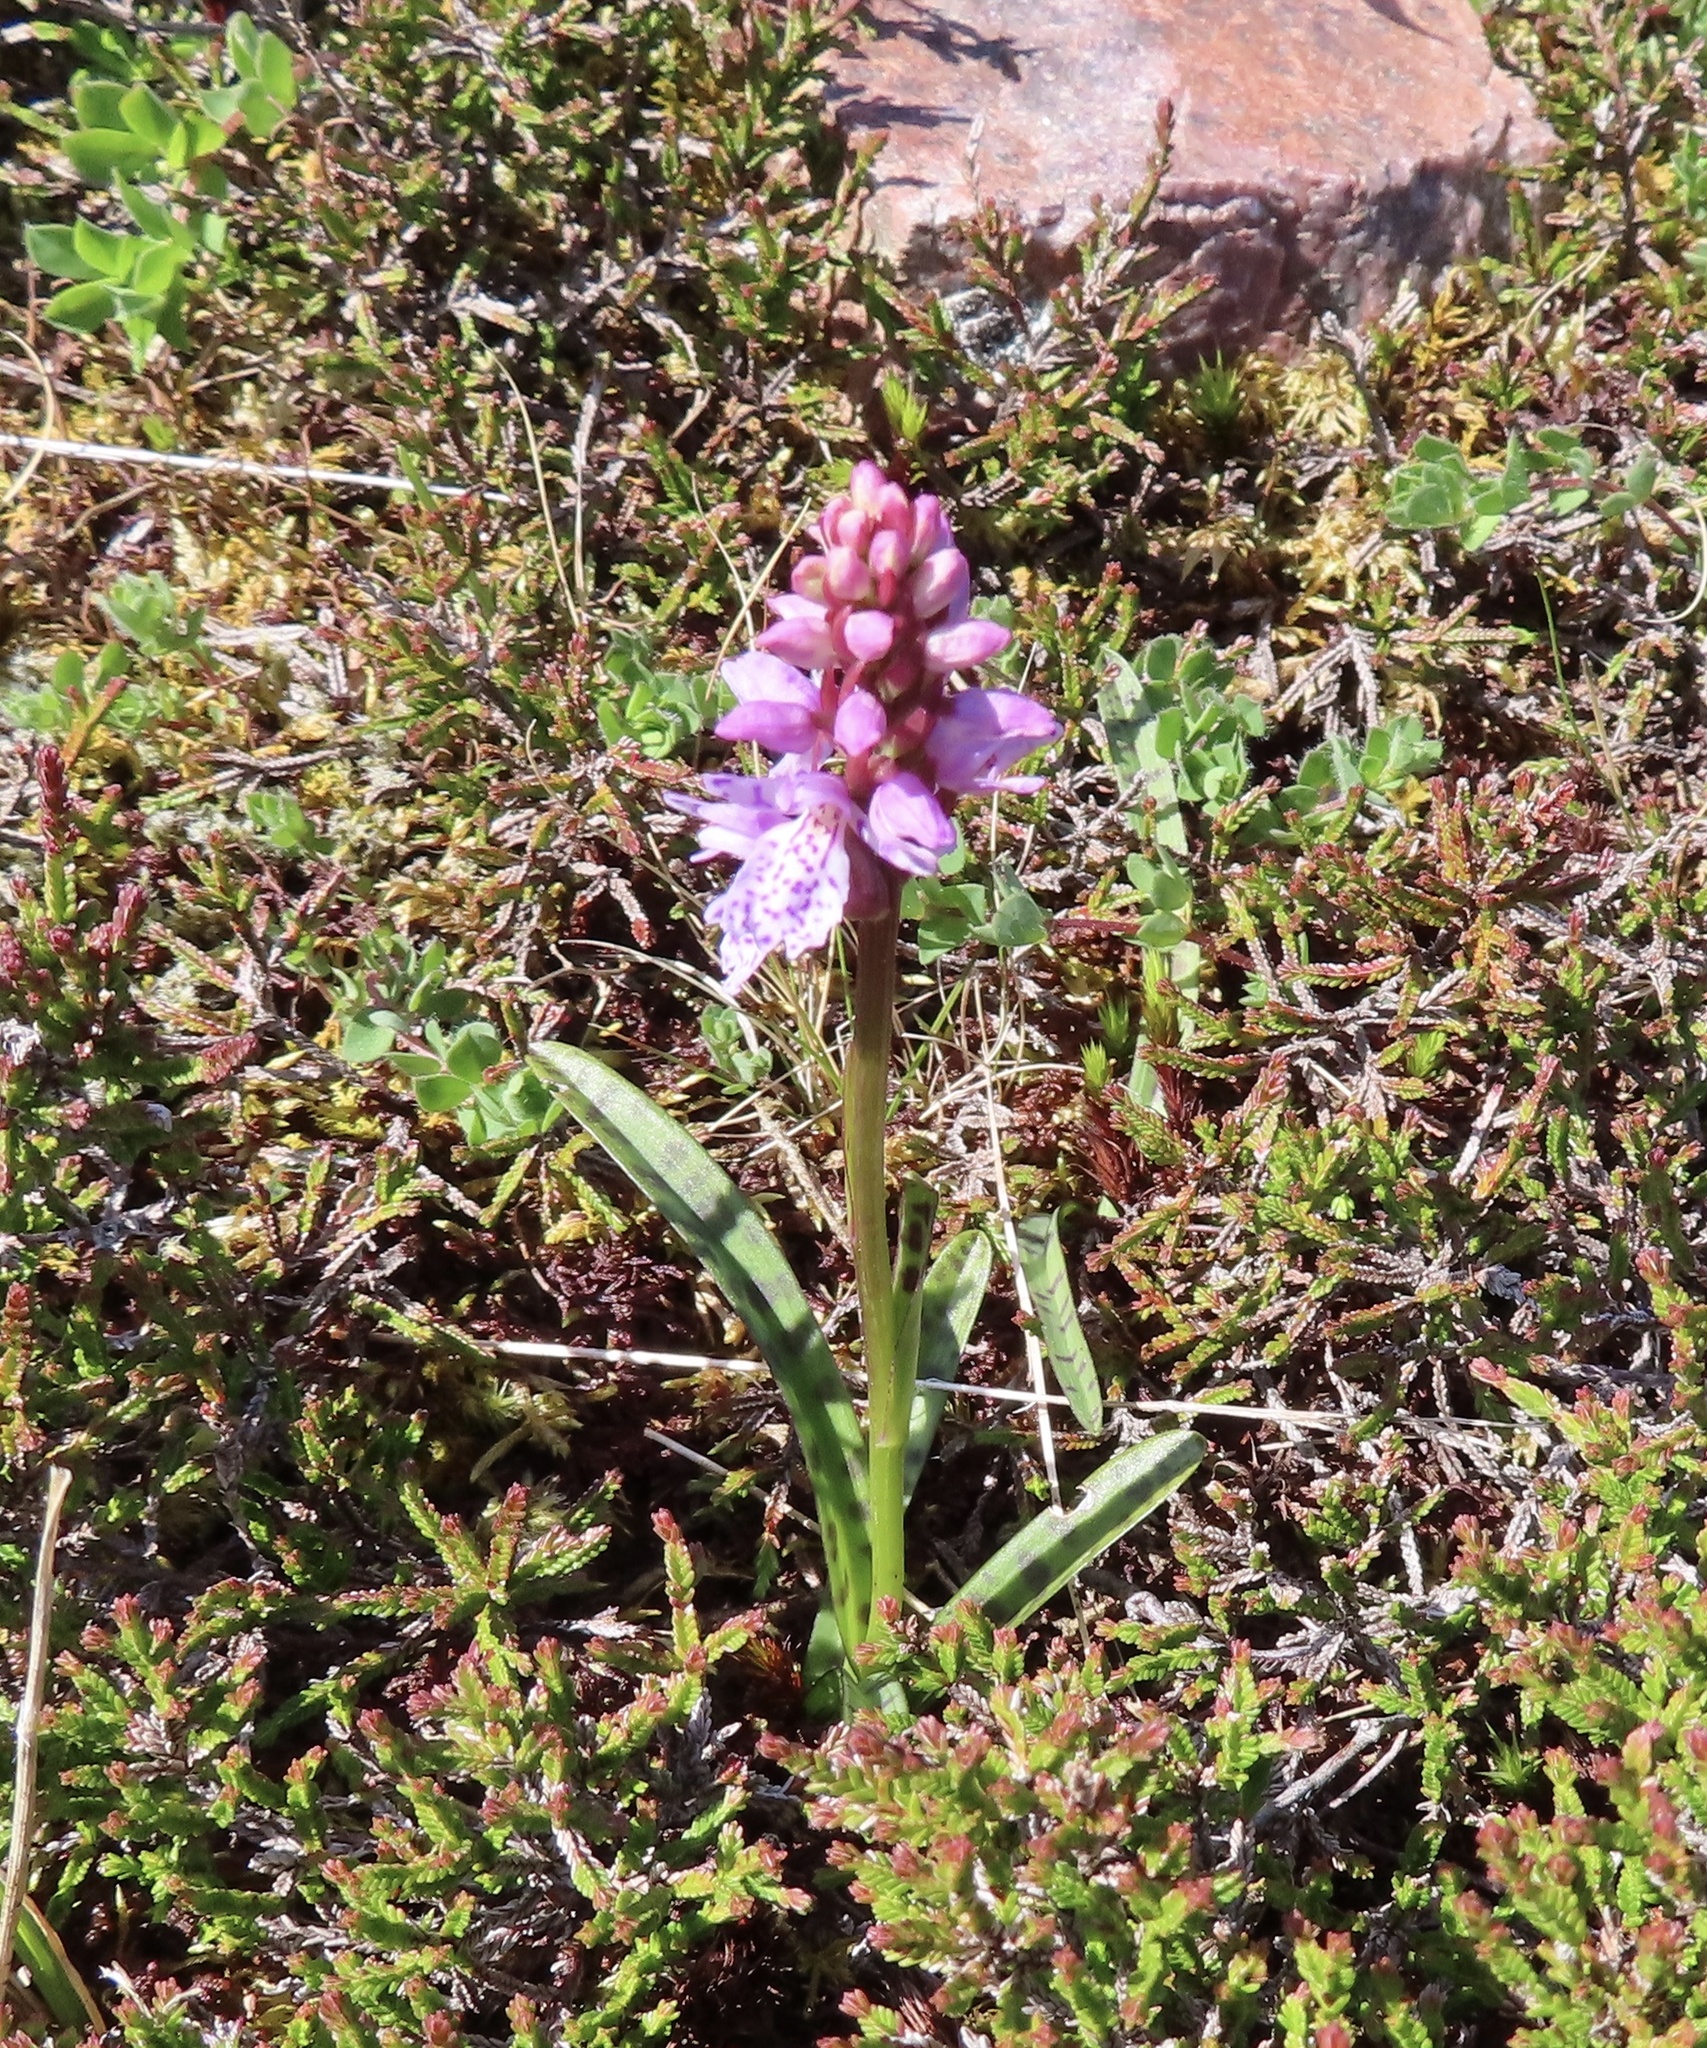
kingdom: Plantae
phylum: Tracheophyta
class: Liliopsida
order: Asparagales
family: Orchidaceae
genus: Dactylorhiza
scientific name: Dactylorhiza maculata
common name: Heath spotted-orchid
